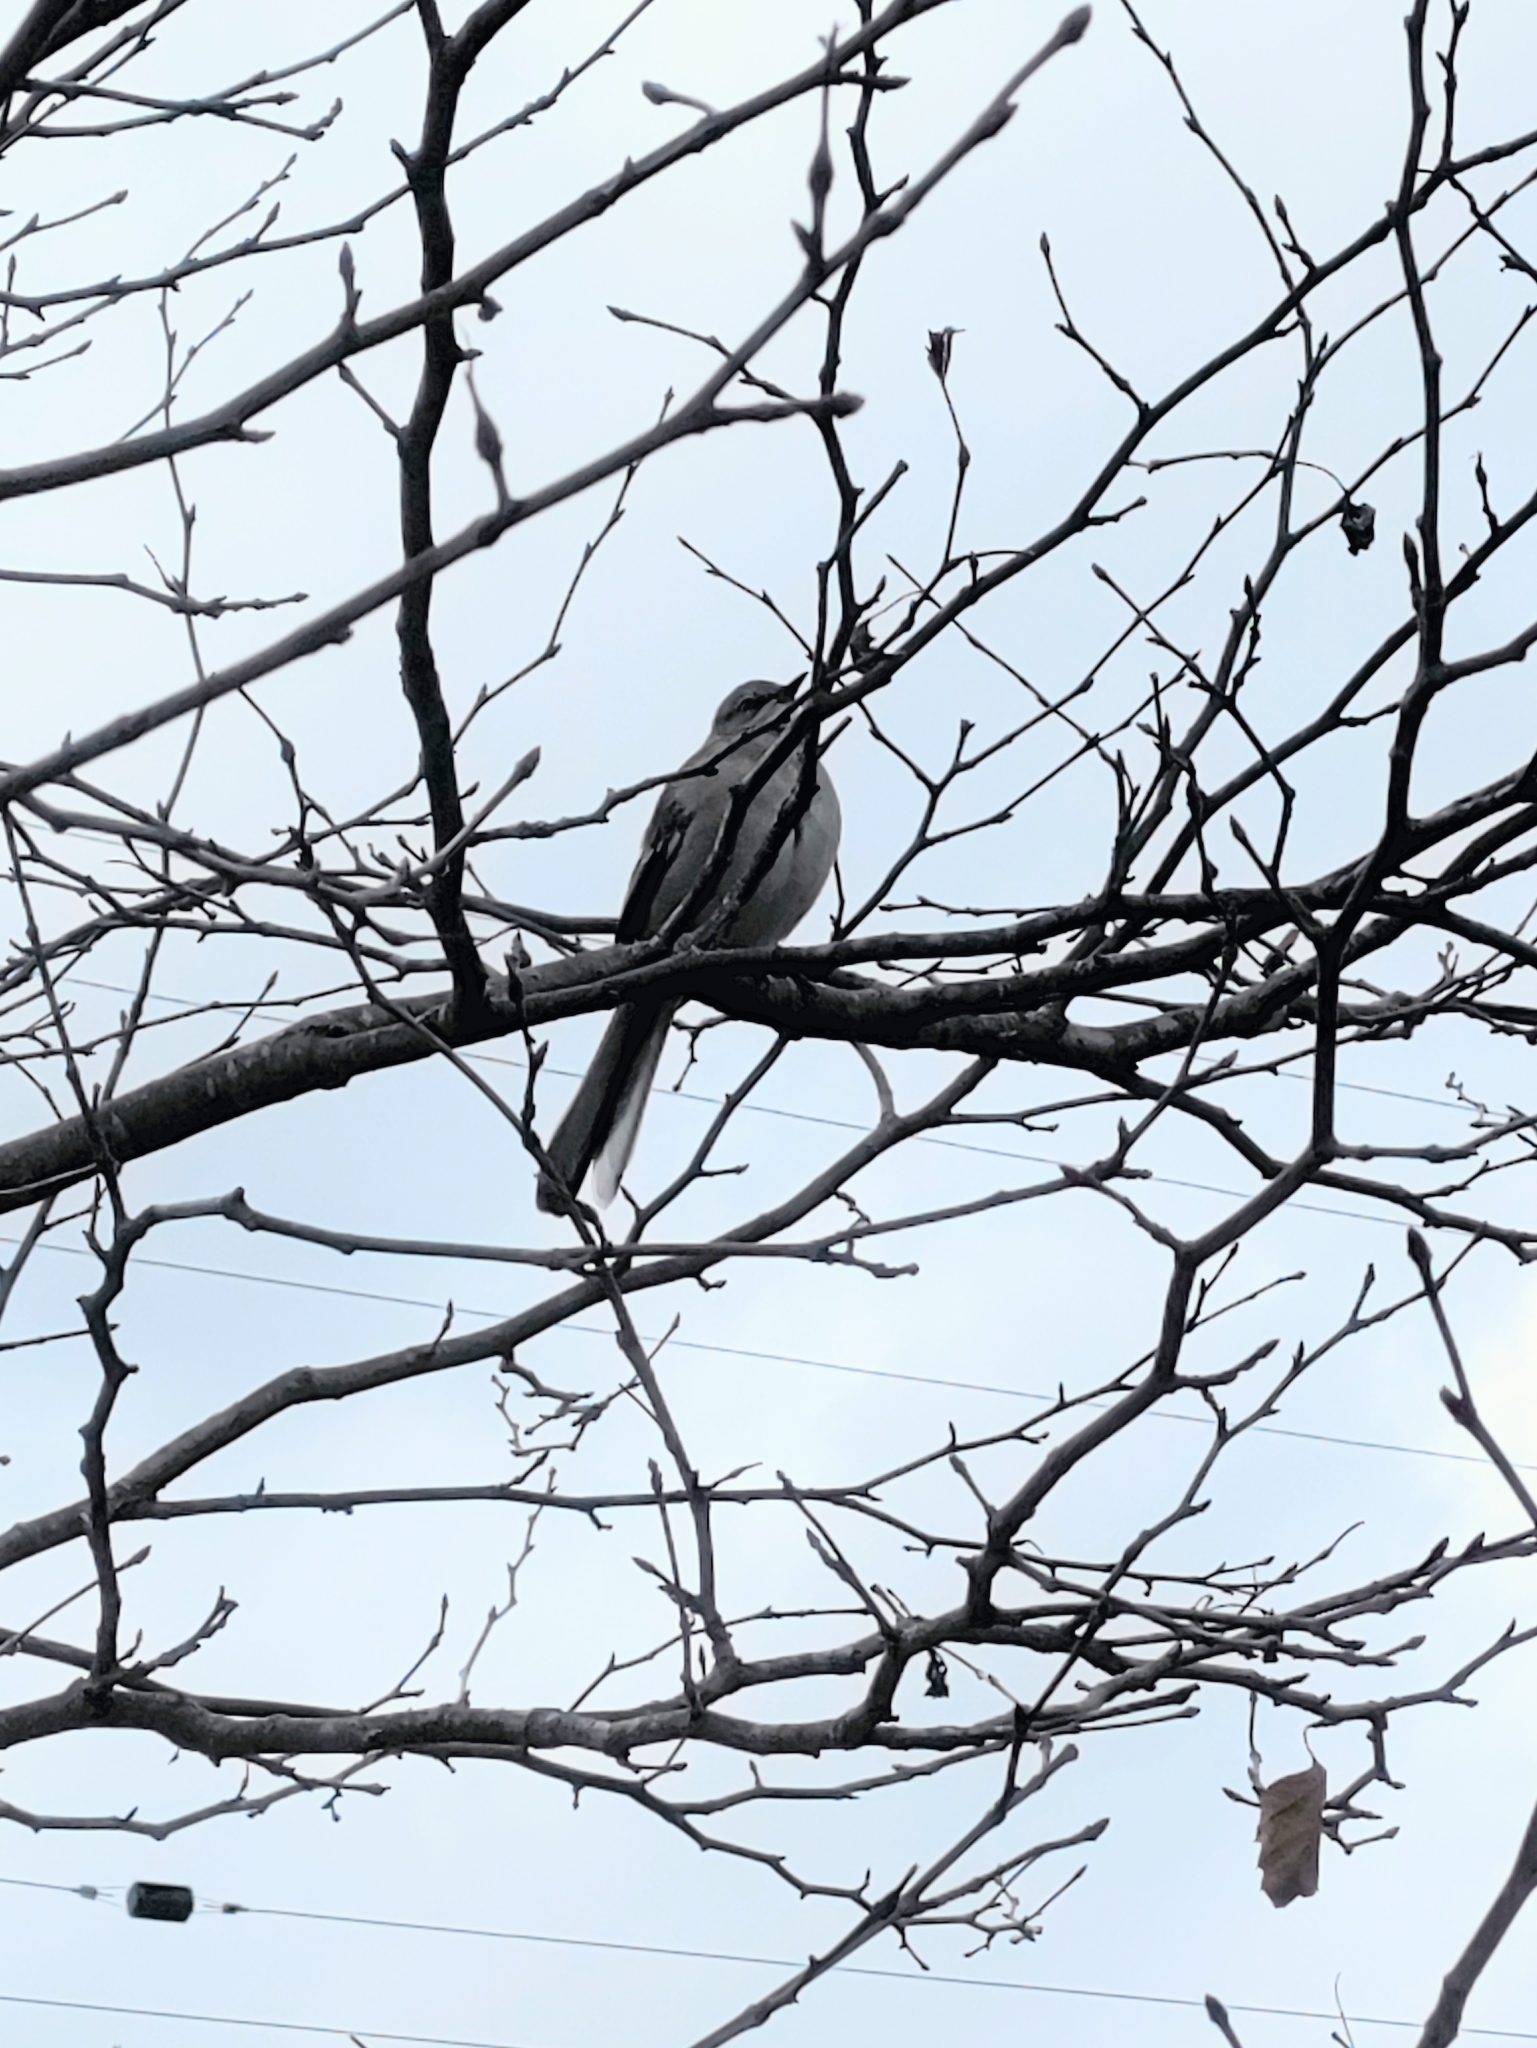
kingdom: Animalia
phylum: Chordata
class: Aves
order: Passeriformes
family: Mimidae
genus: Mimus
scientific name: Mimus polyglottos
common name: Northern mockingbird
